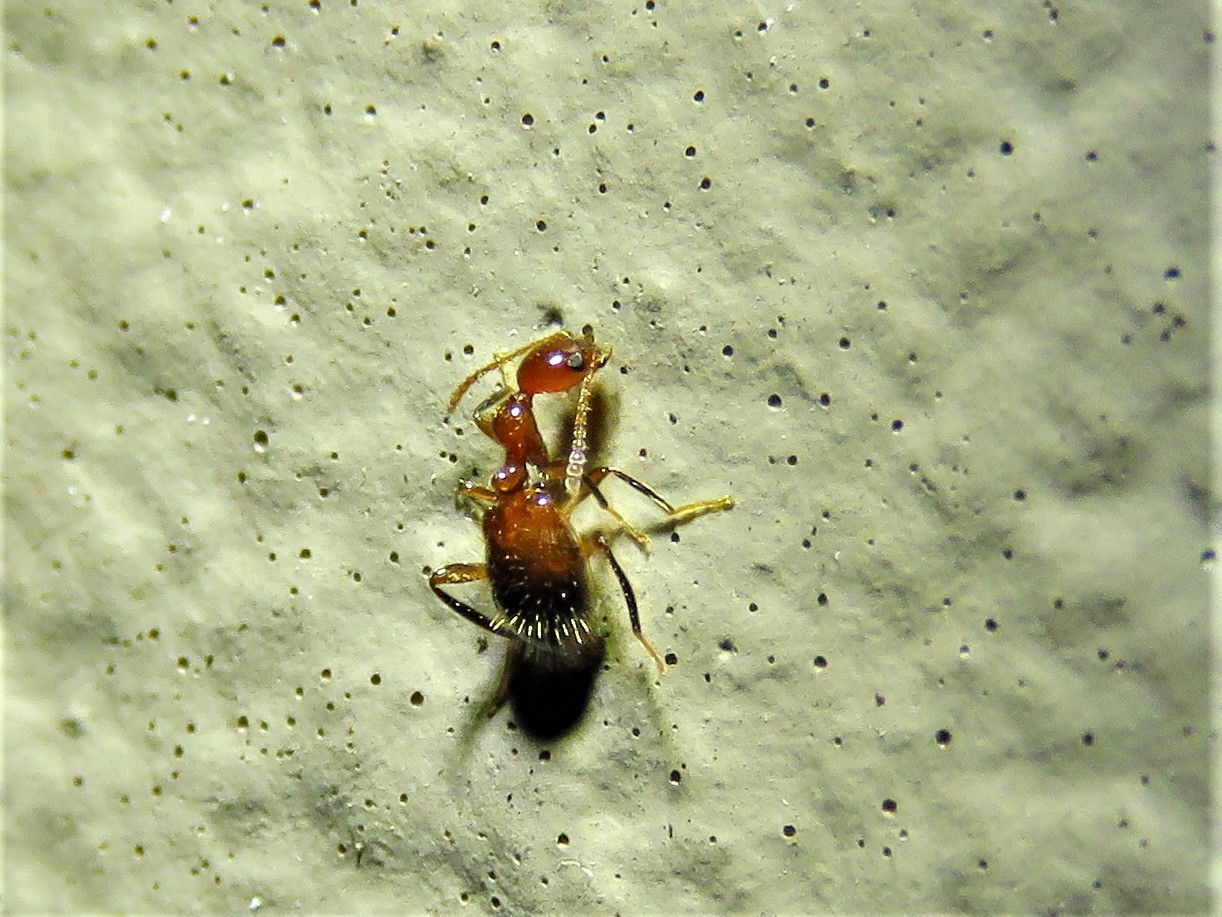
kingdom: Animalia
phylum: Arthropoda
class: Insecta
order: Coleoptera
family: Anthicidae
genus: Acanthinus
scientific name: Acanthinus
